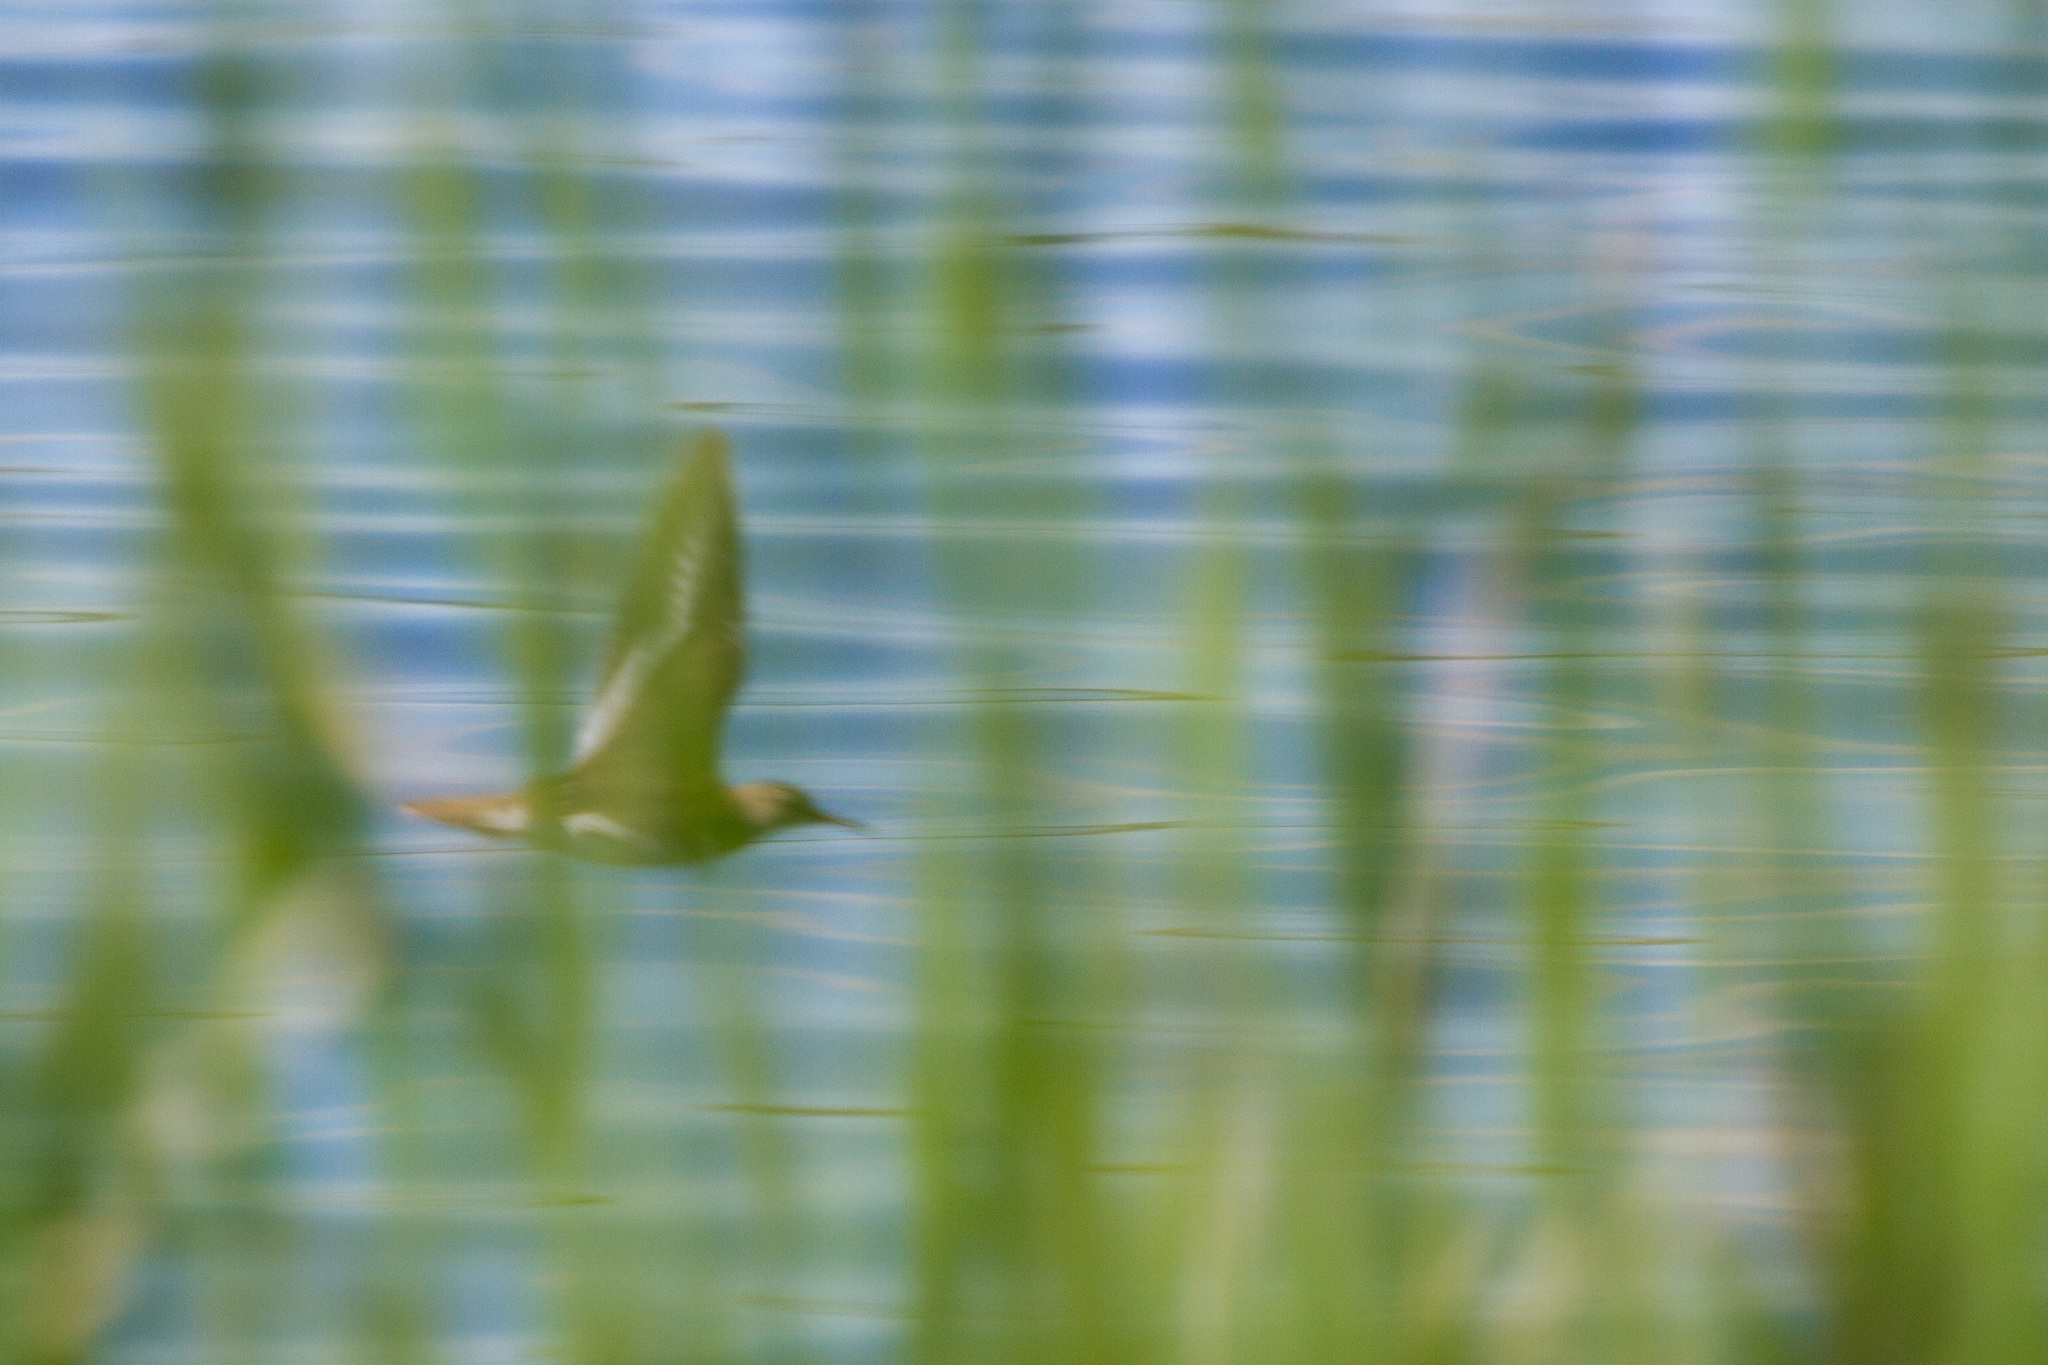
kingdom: Animalia
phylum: Chordata
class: Aves
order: Charadriiformes
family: Scolopacidae
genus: Actitis
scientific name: Actitis hypoleucos
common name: Common sandpiper
